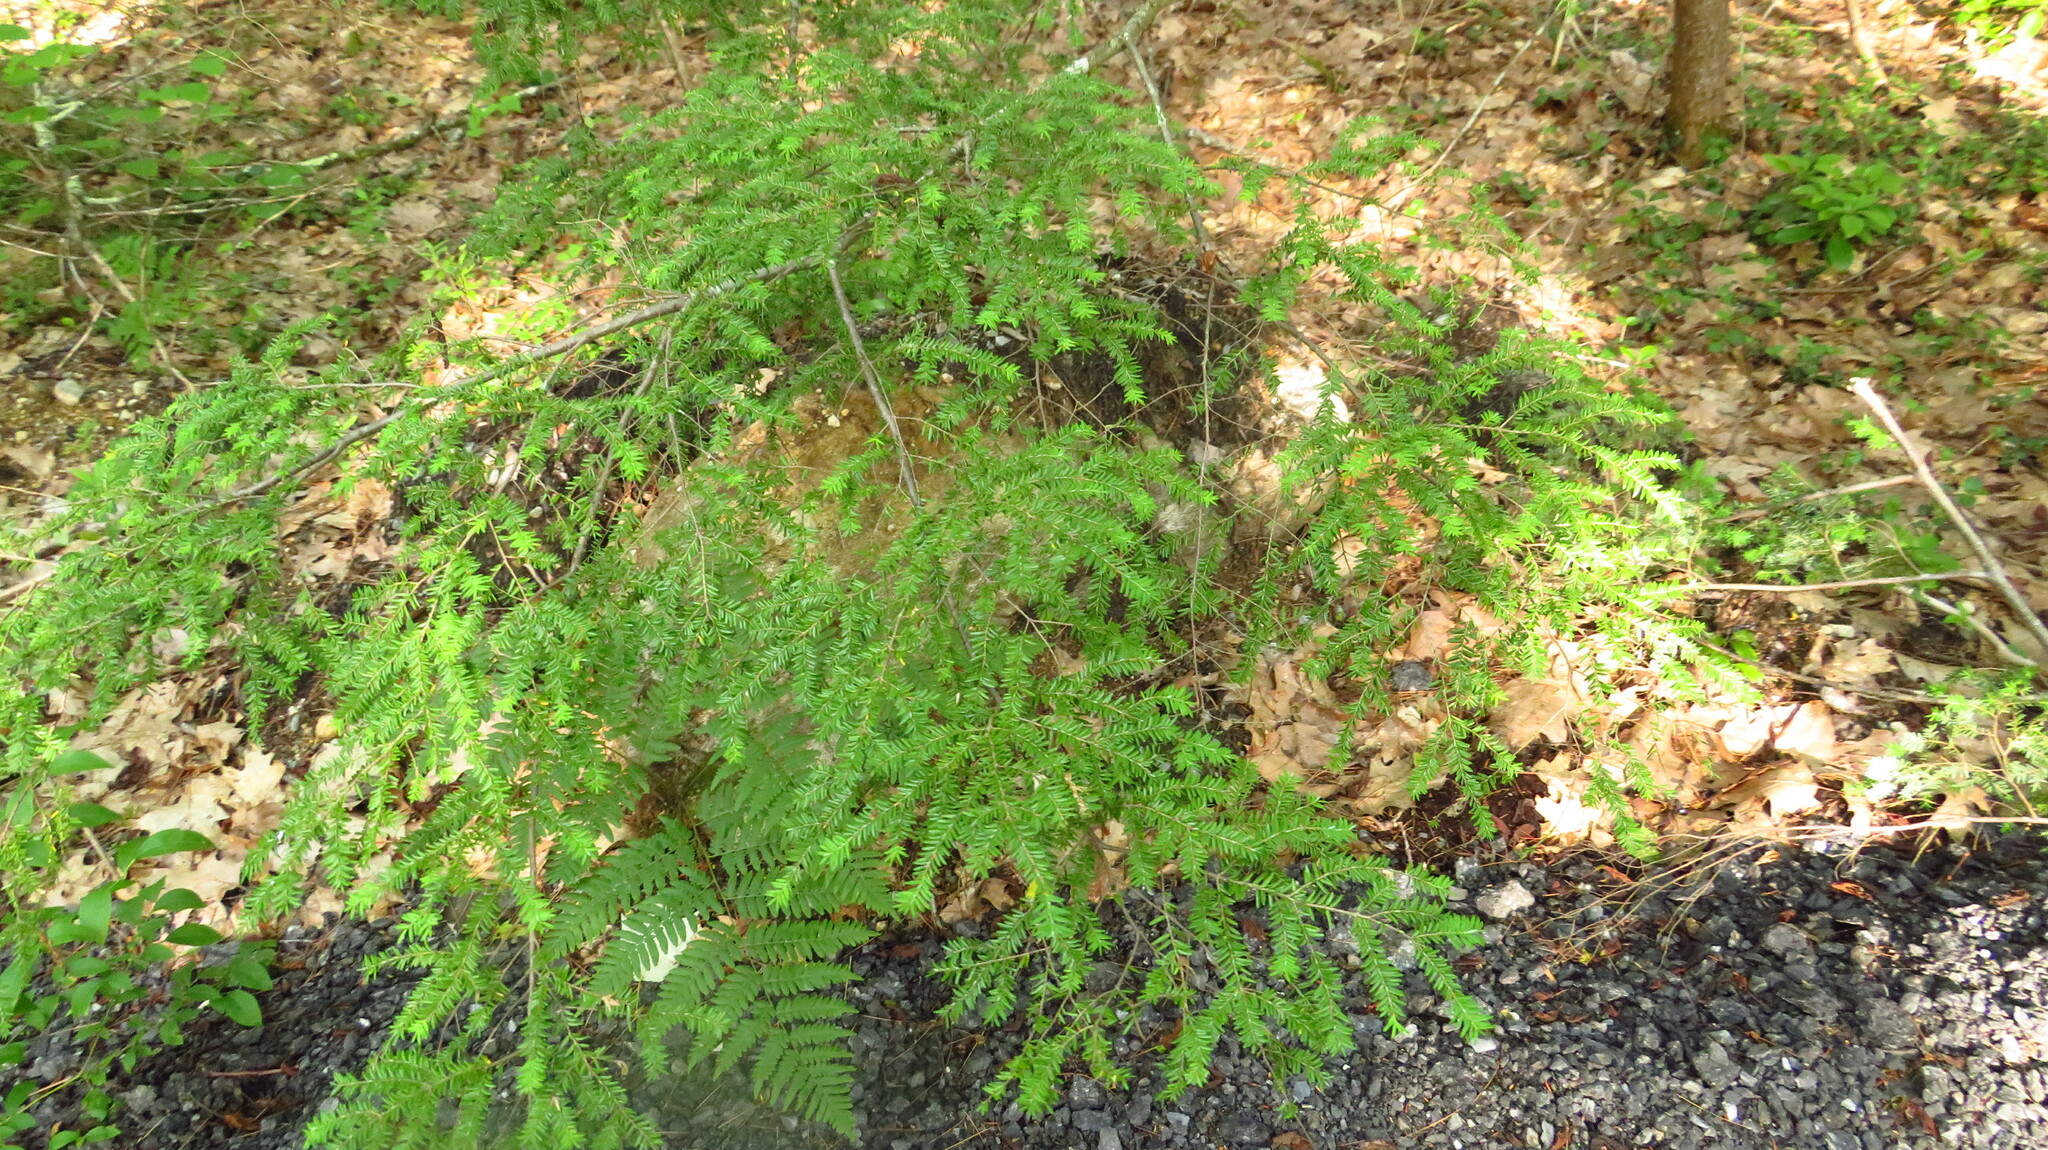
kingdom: Plantae
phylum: Tracheophyta
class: Pinopsida
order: Pinales
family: Pinaceae
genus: Tsuga
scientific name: Tsuga canadensis
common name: Eastern hemlock
